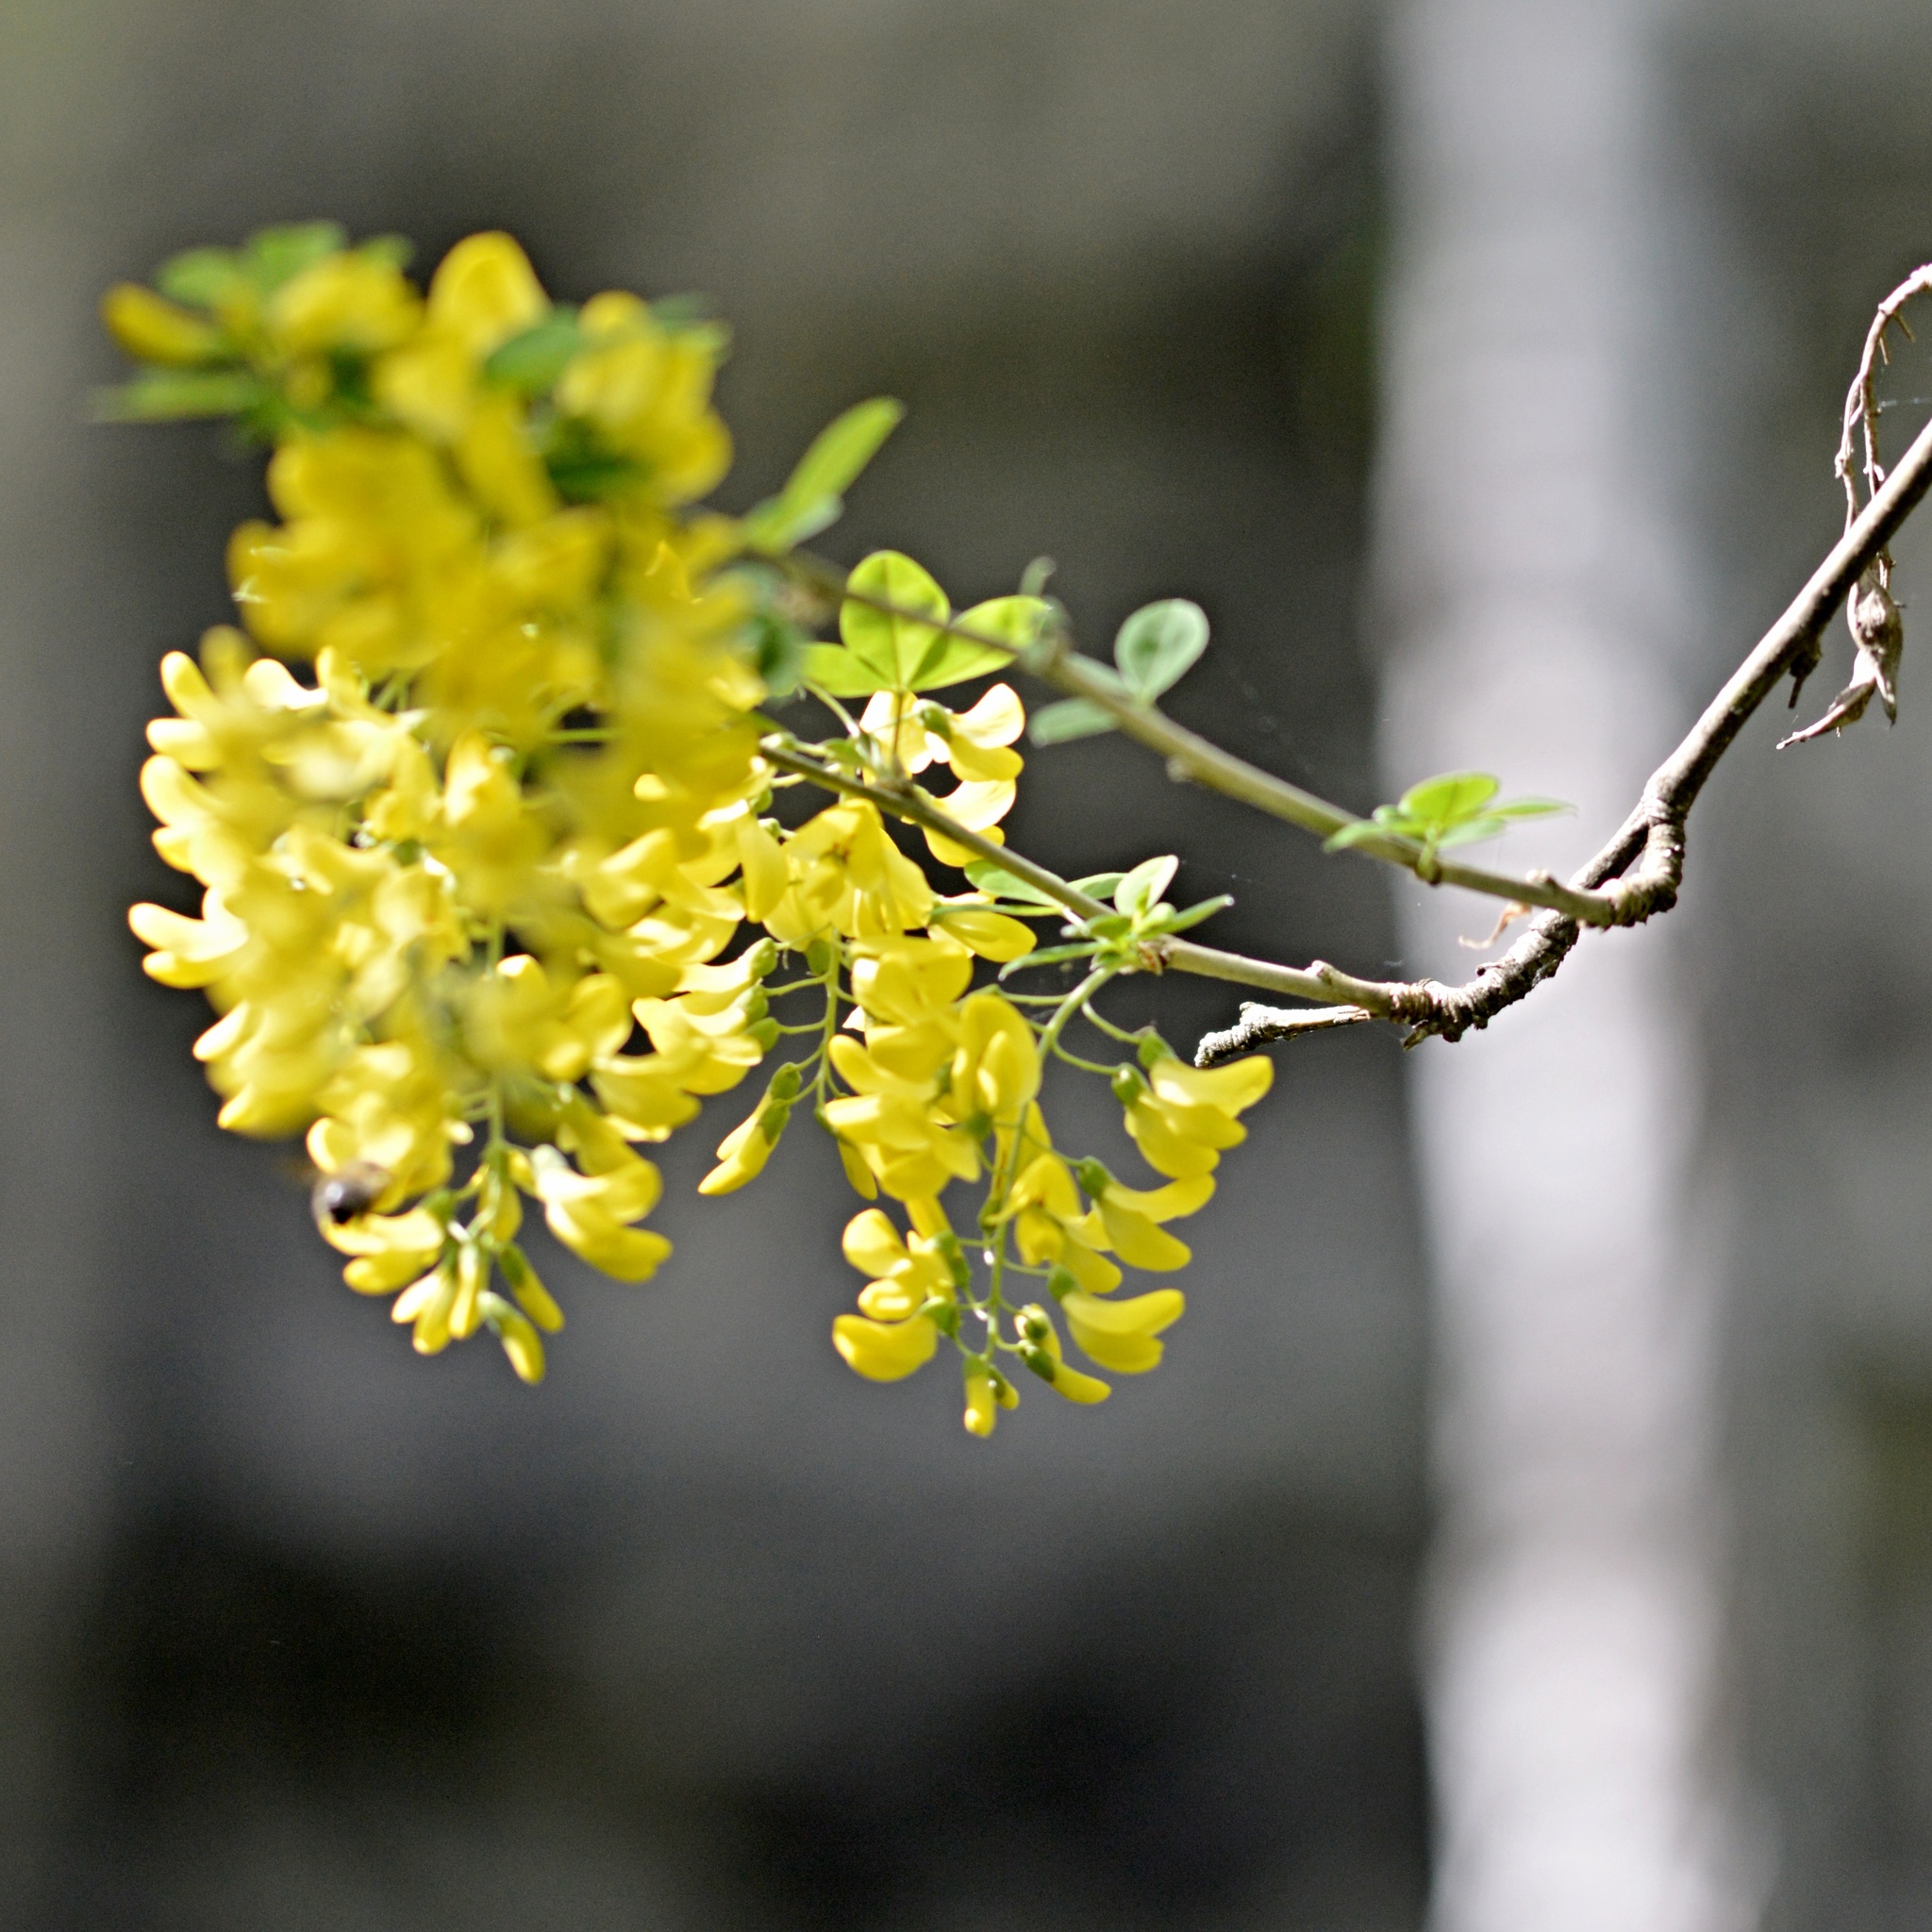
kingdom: Plantae
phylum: Tracheophyta
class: Magnoliopsida
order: Fabales
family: Fabaceae
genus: Laburnum
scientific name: Laburnum anagyroides
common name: Laburnum
